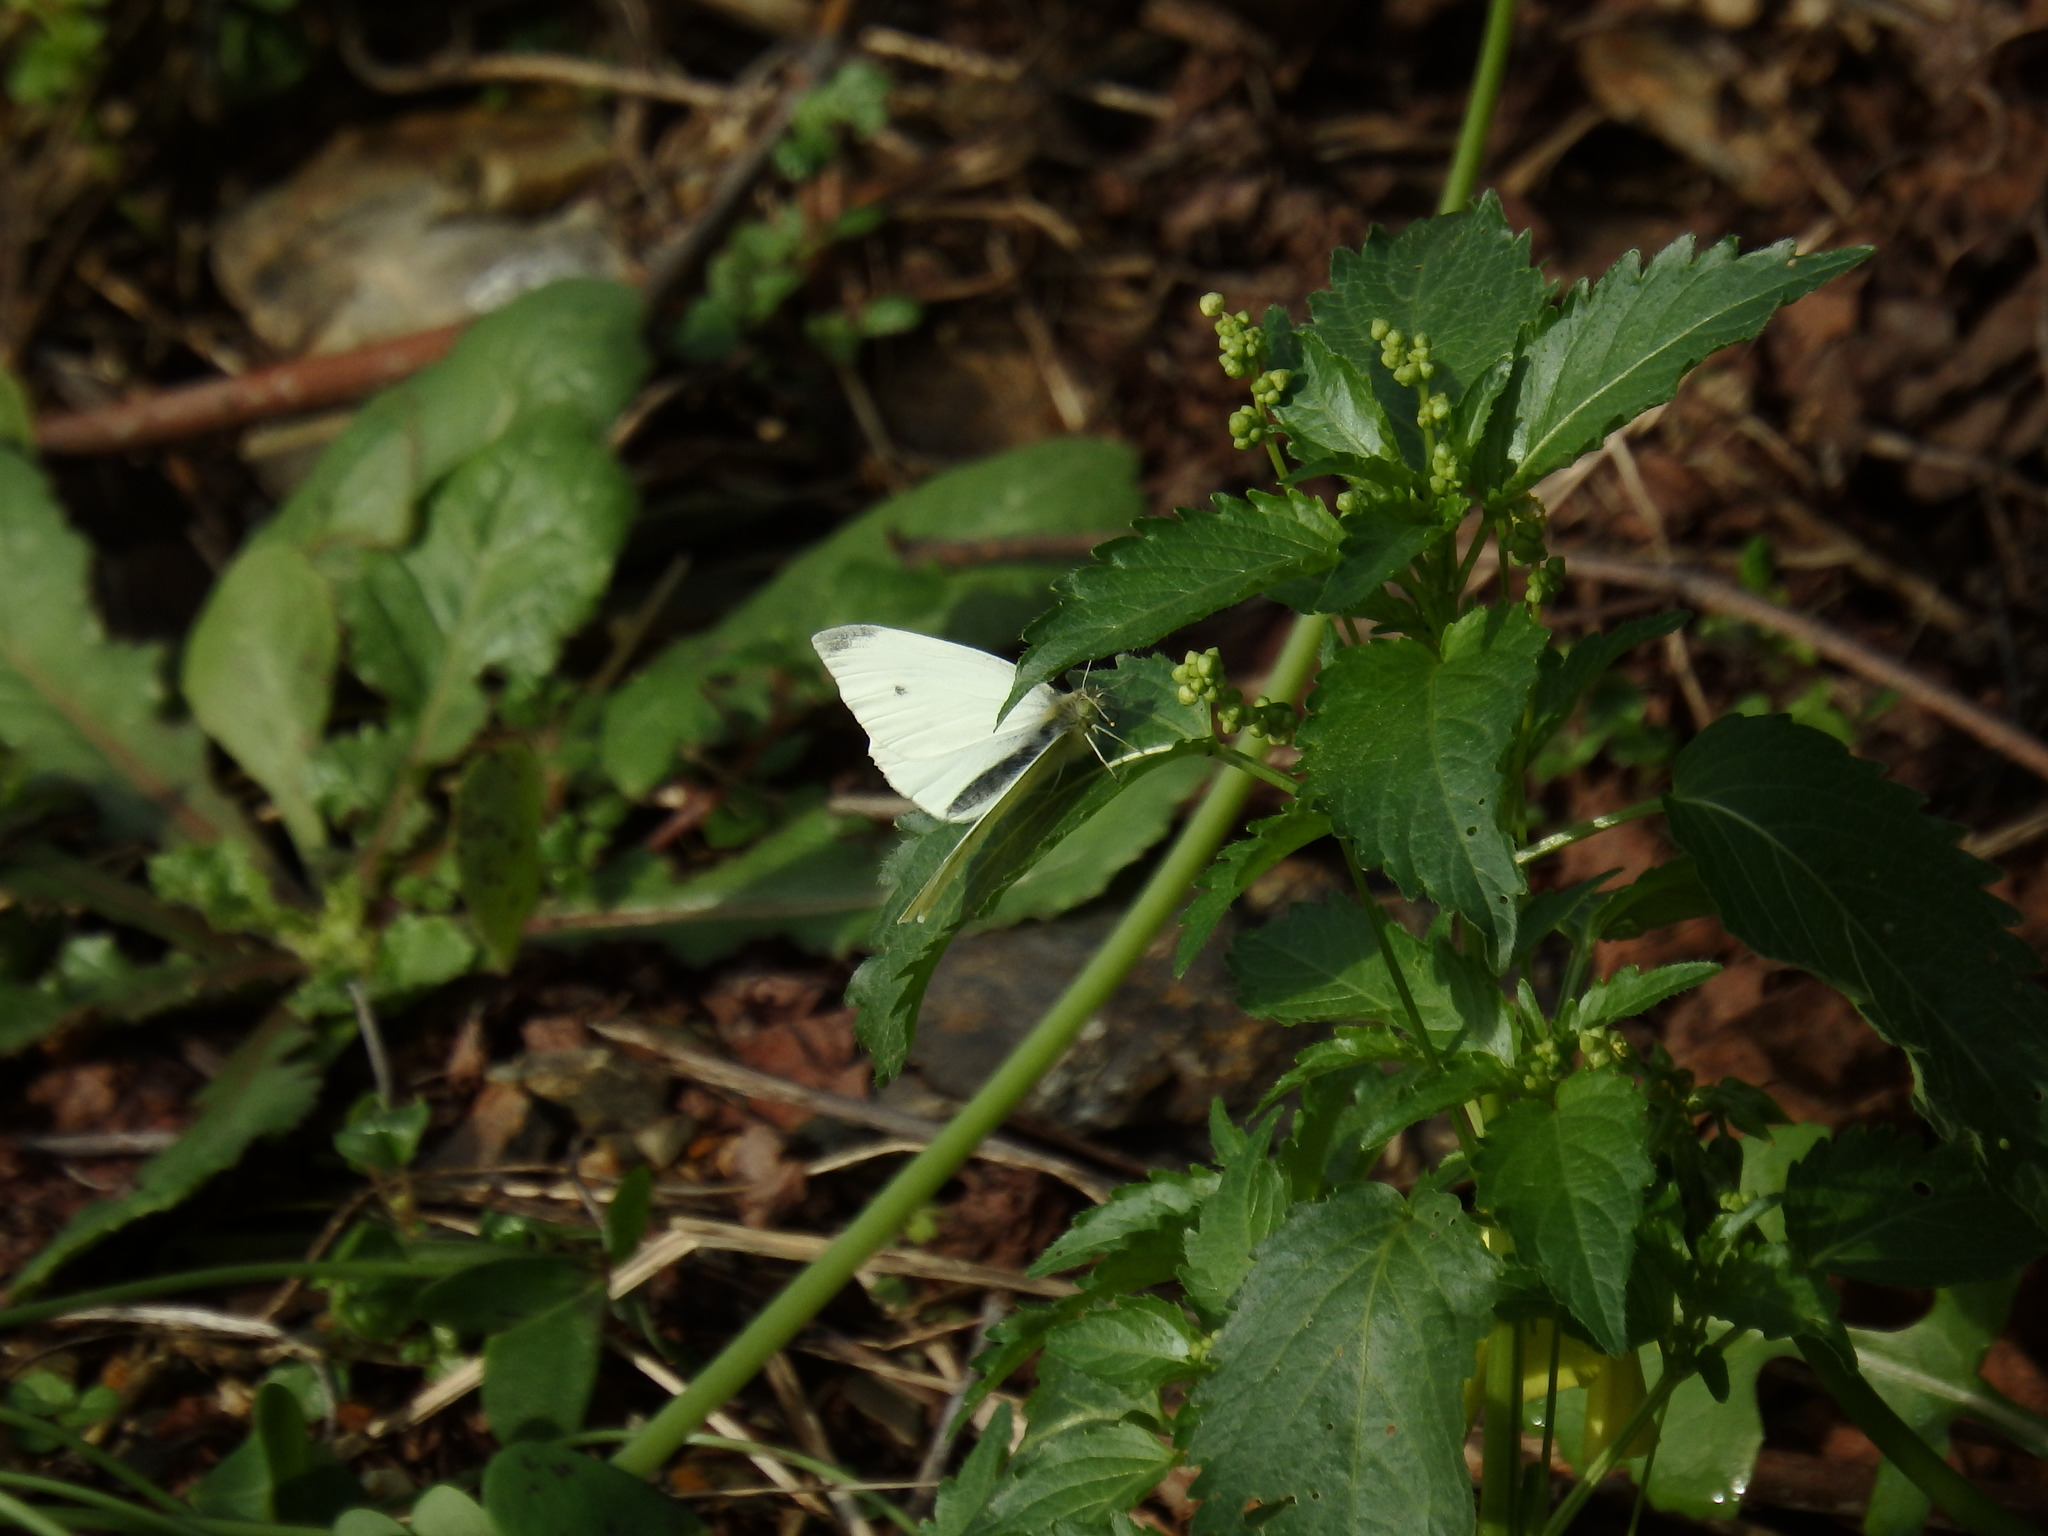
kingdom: Animalia
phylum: Arthropoda
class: Insecta
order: Lepidoptera
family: Pieridae
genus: Pieris
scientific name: Pieris rapae
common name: Small white
